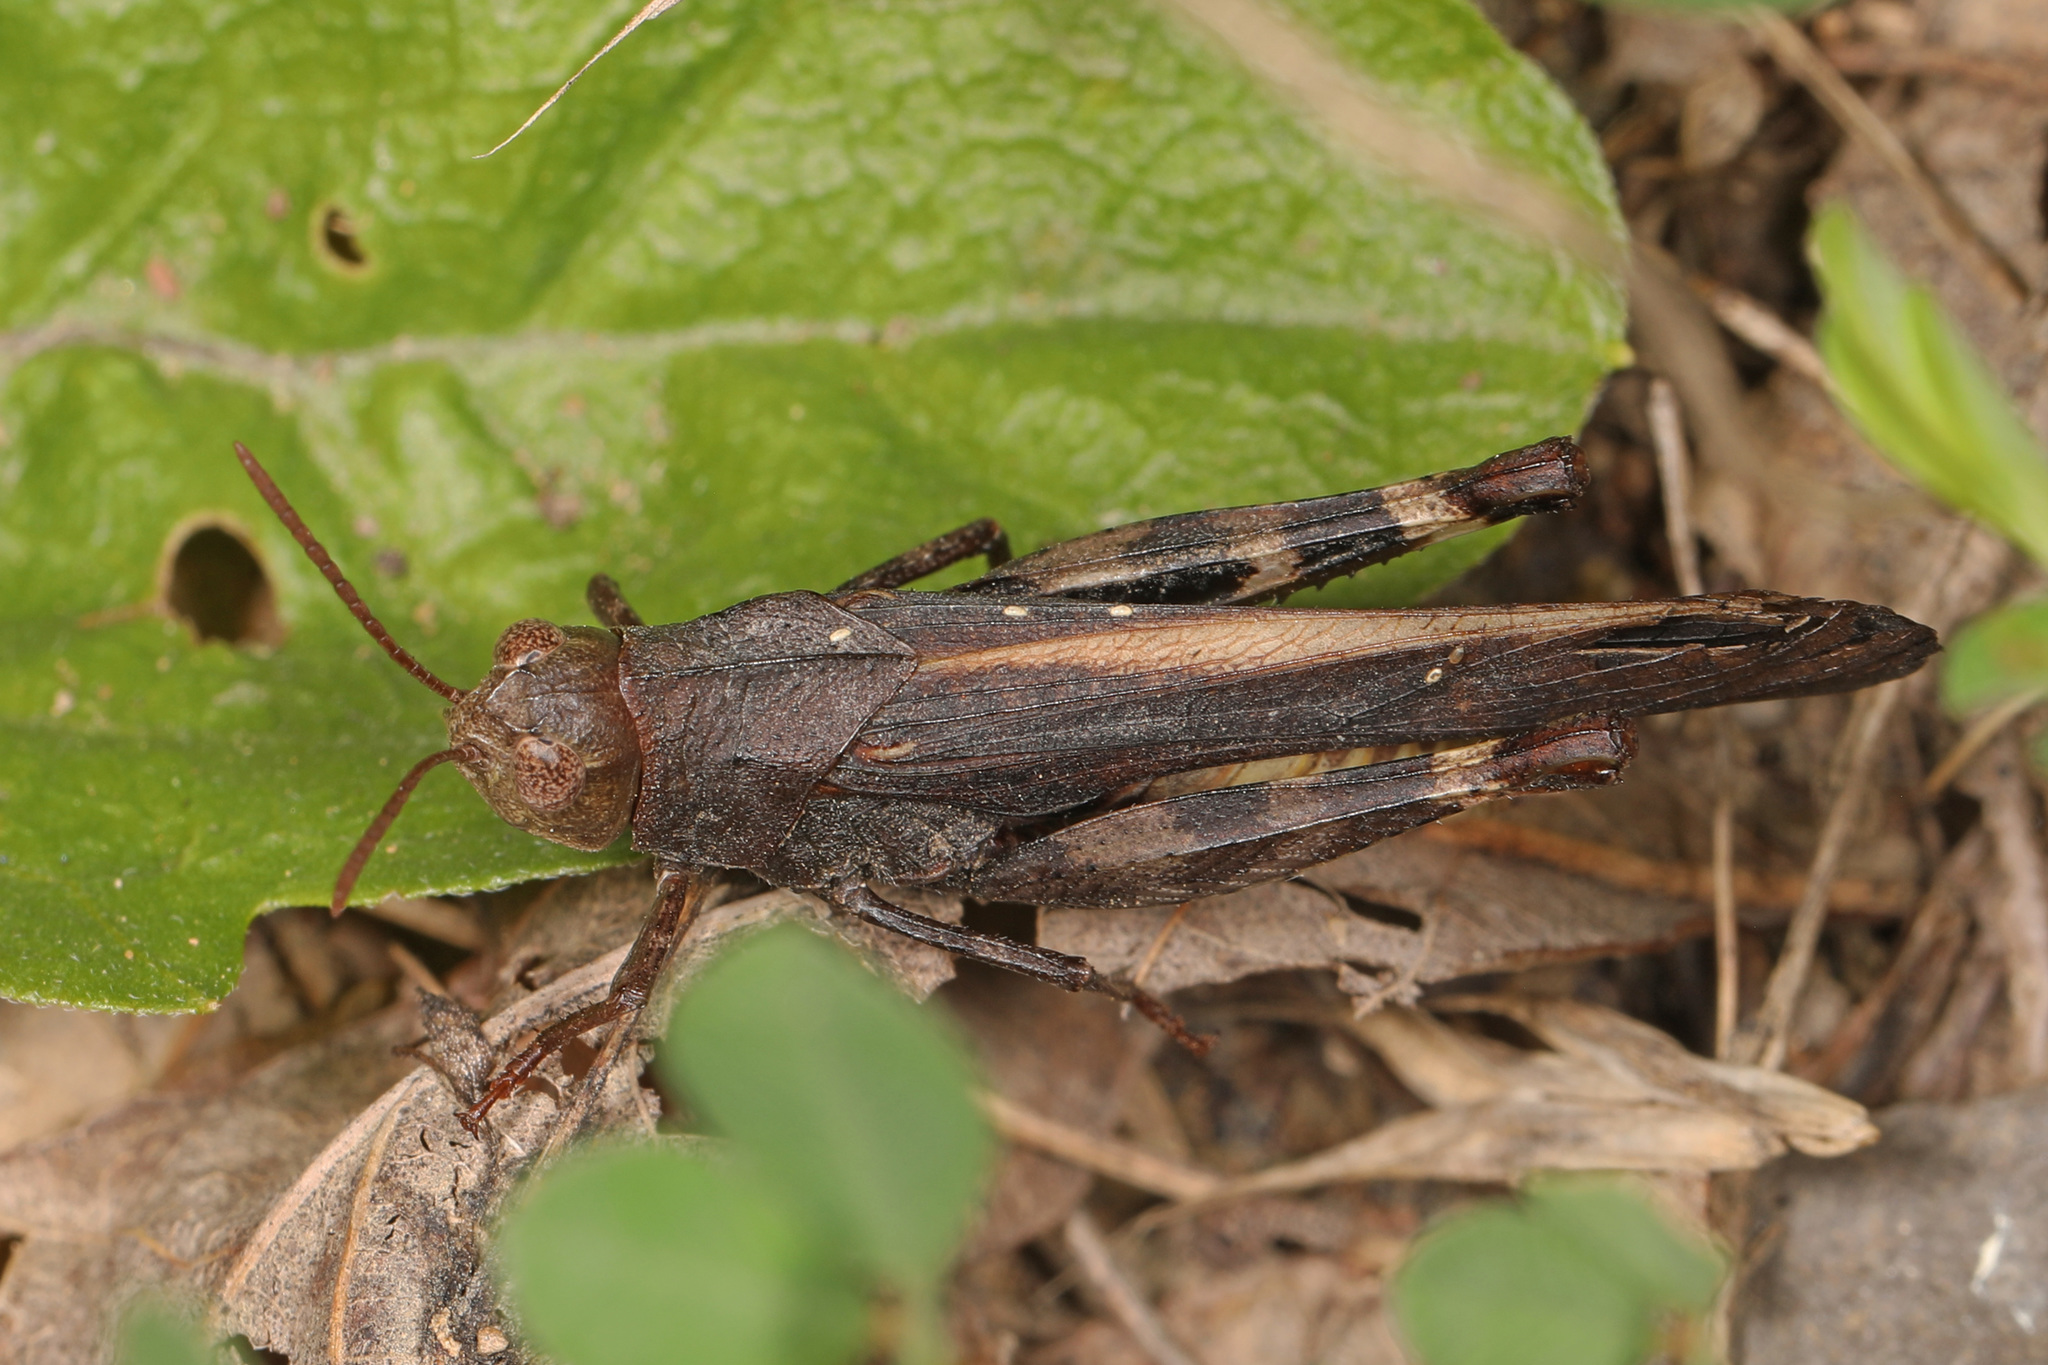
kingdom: Animalia
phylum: Arthropoda
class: Insecta
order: Orthoptera
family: Acrididae
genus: Arphia
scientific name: Arphia sulphurea
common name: Spring yellow-winged locust
